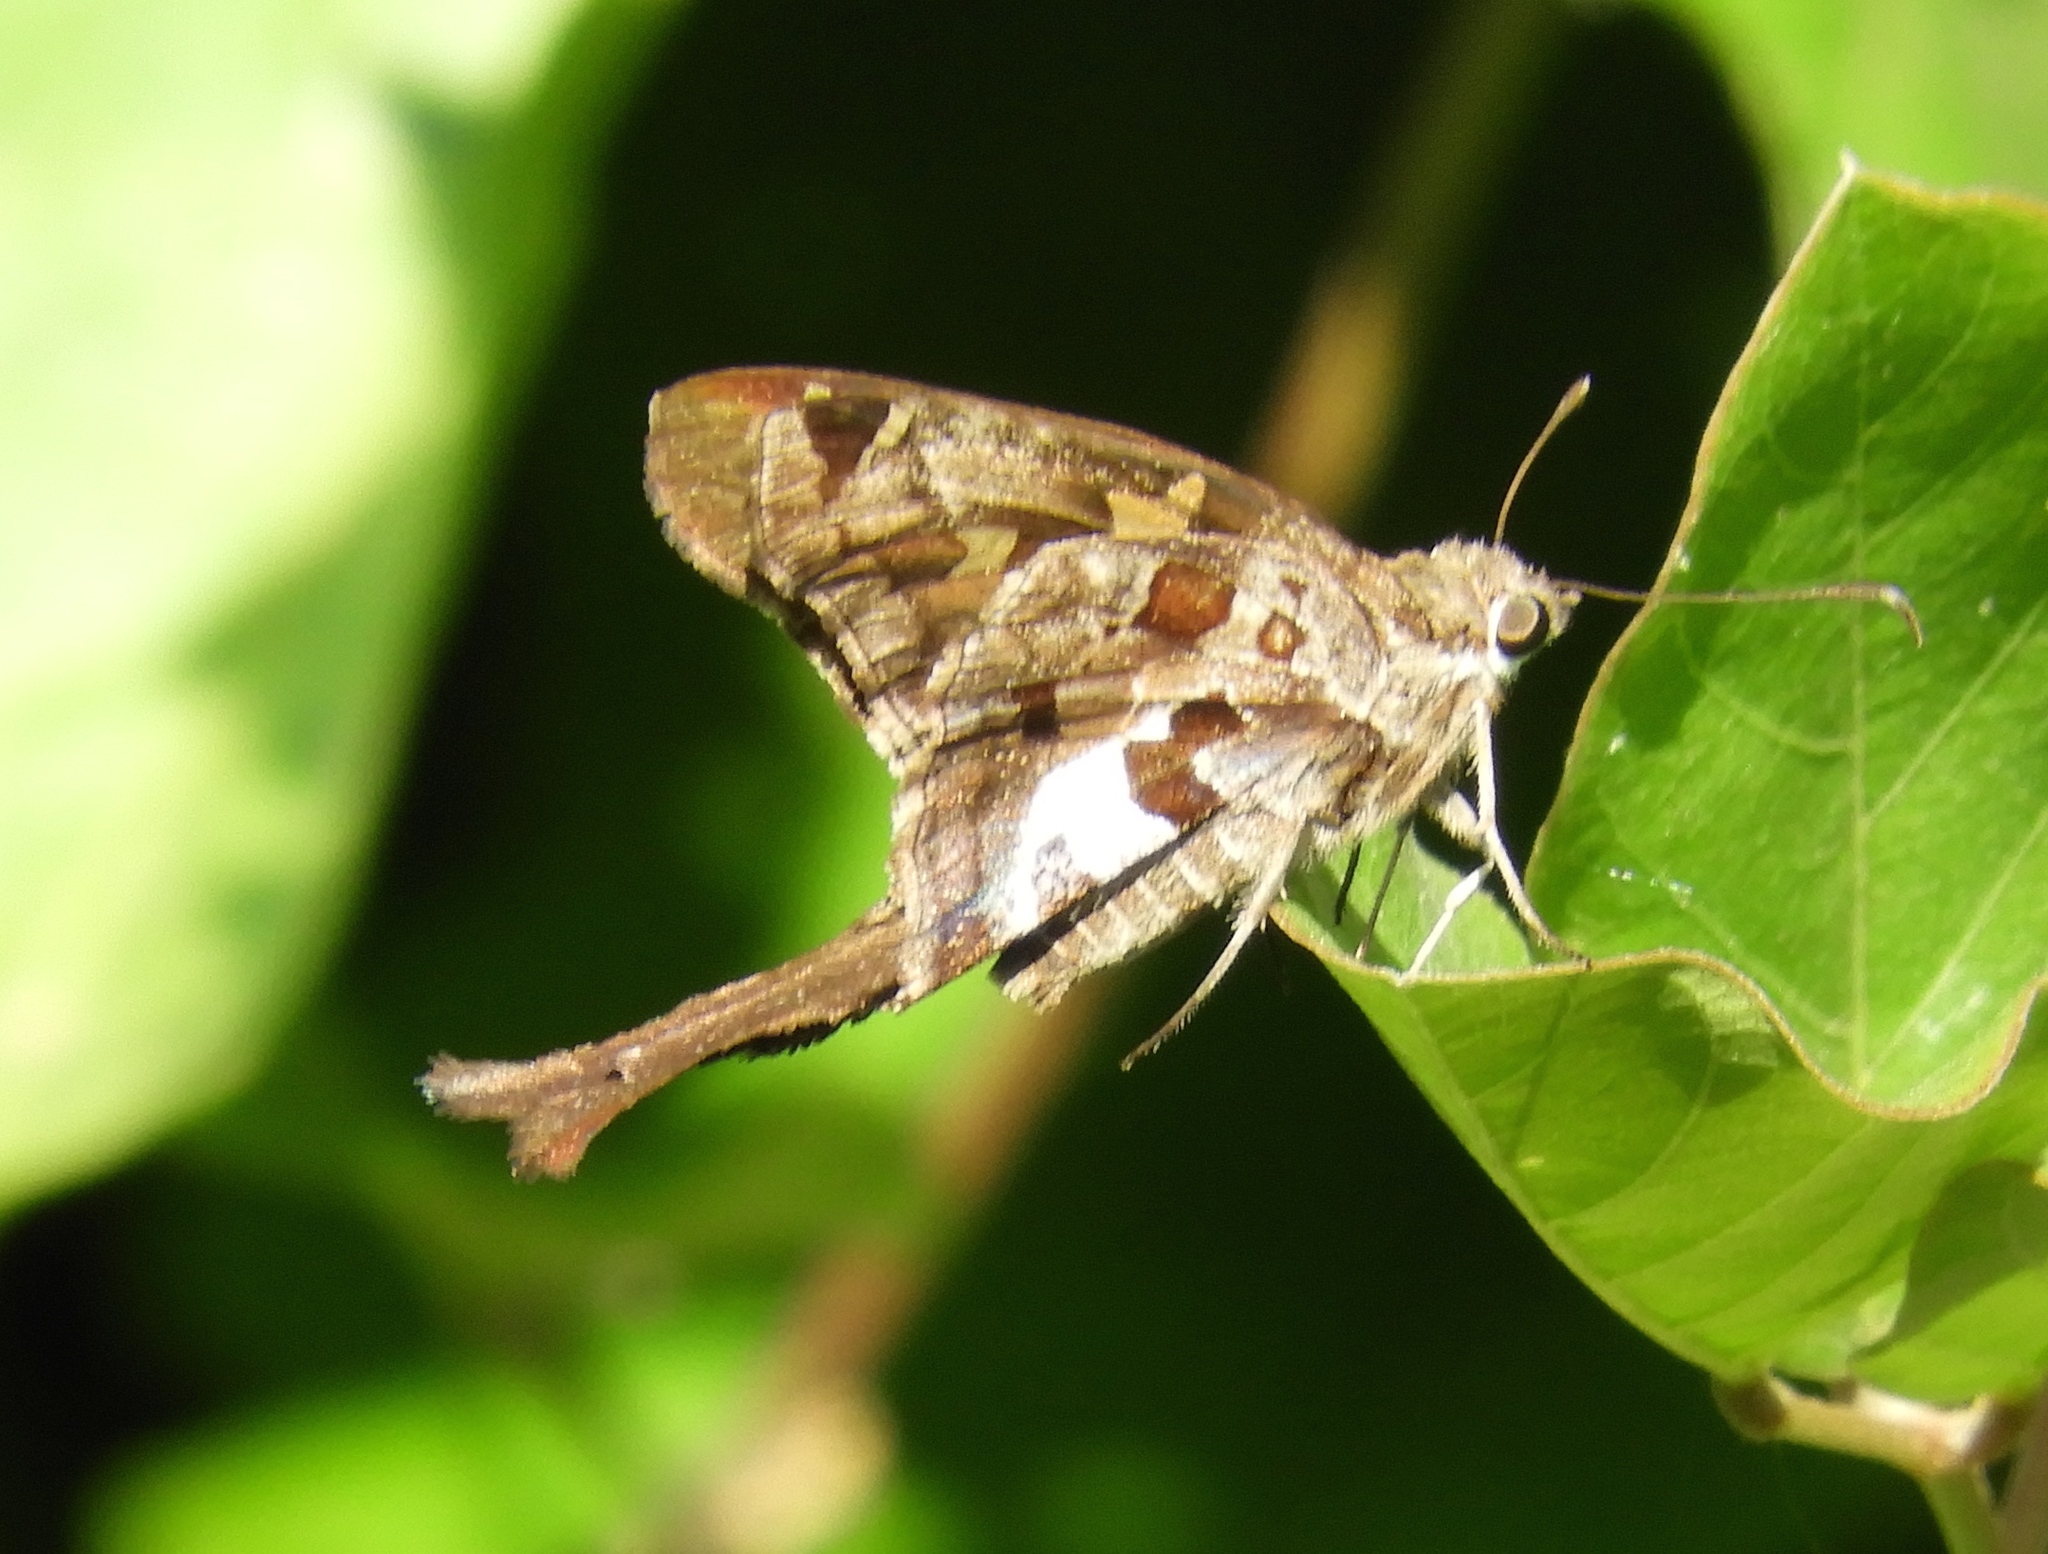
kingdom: Animalia
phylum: Arthropoda
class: Insecta
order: Lepidoptera
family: Hesperiidae
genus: Chioides
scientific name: Chioides zilpa
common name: Zilpa longtail
